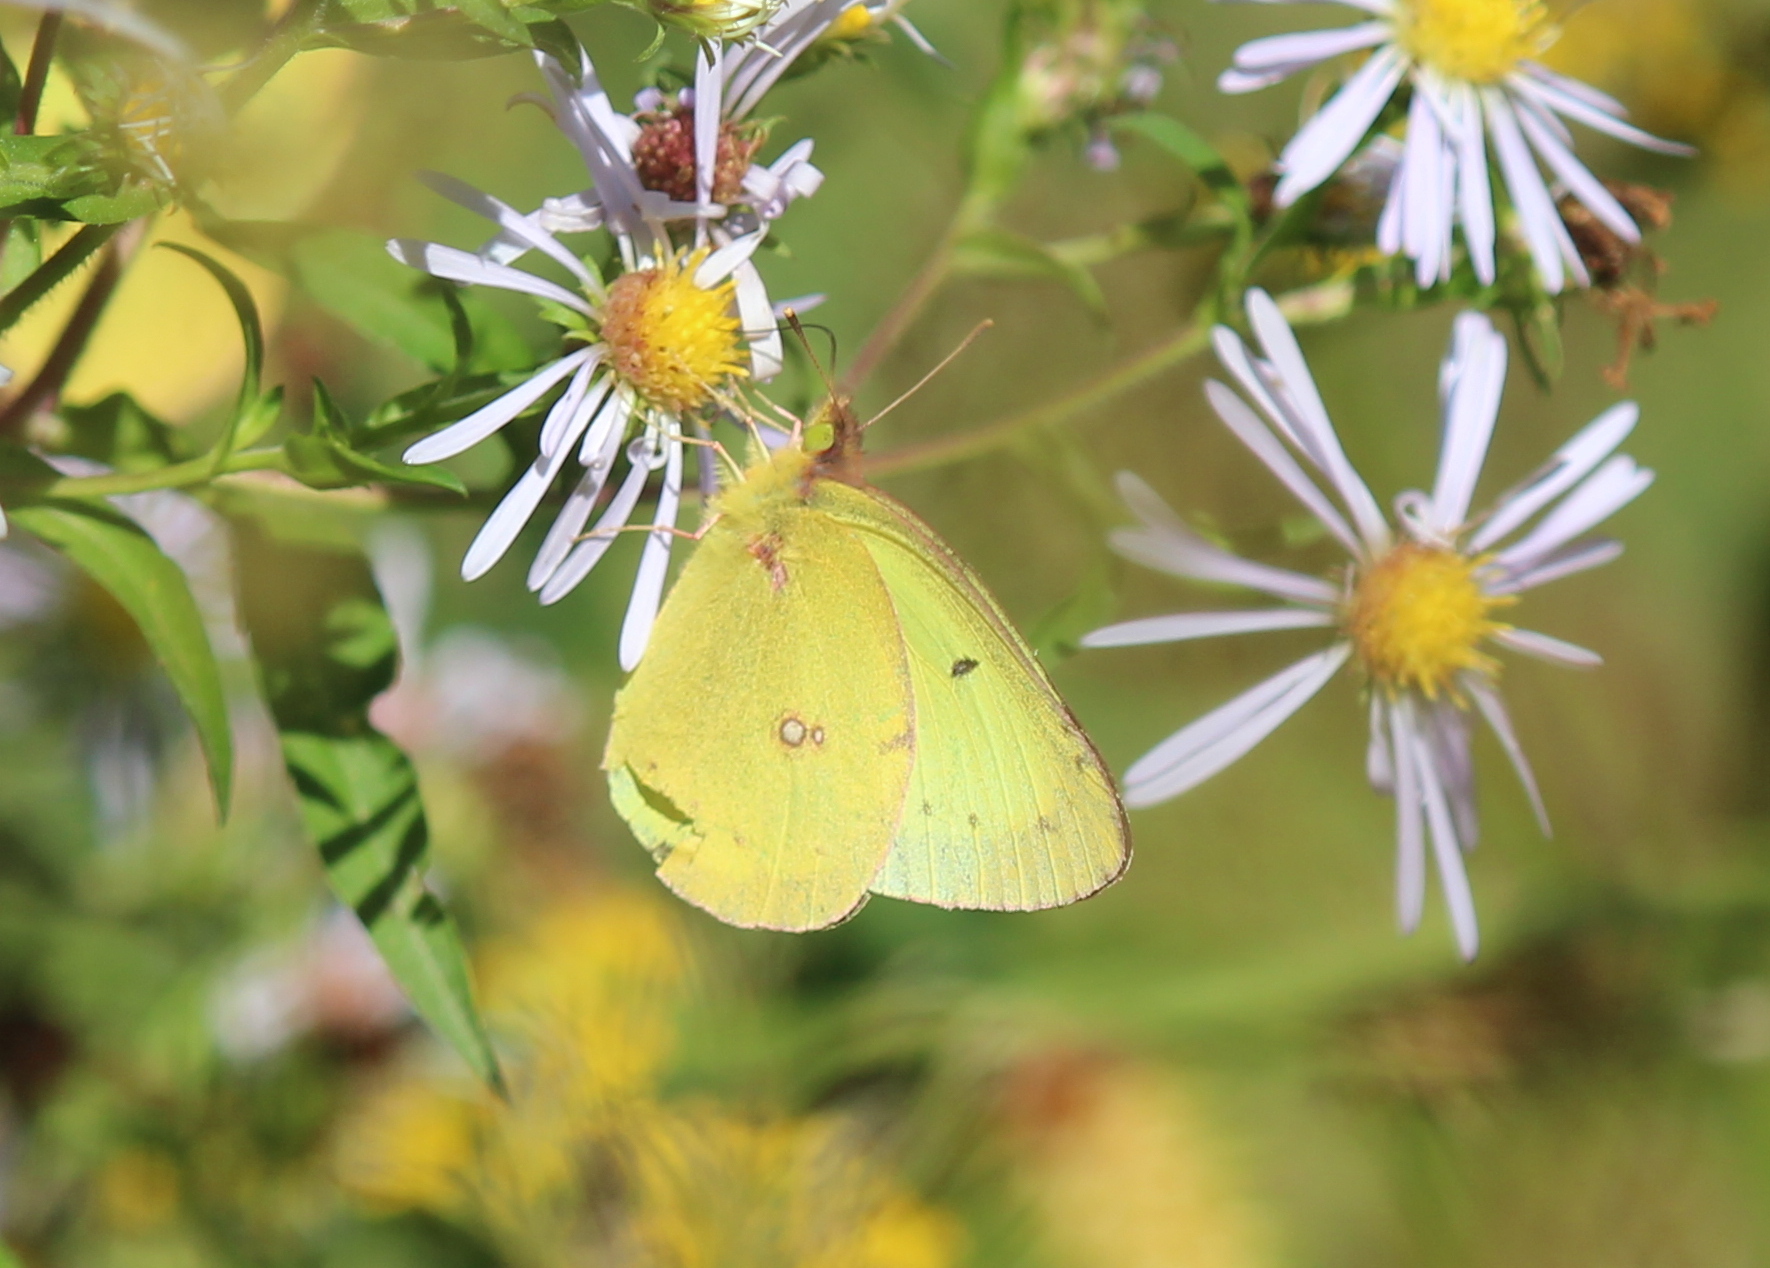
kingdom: Animalia
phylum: Arthropoda
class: Insecta
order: Lepidoptera
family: Pieridae
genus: Colias
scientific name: Colias philodice
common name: Clouded sulphur
